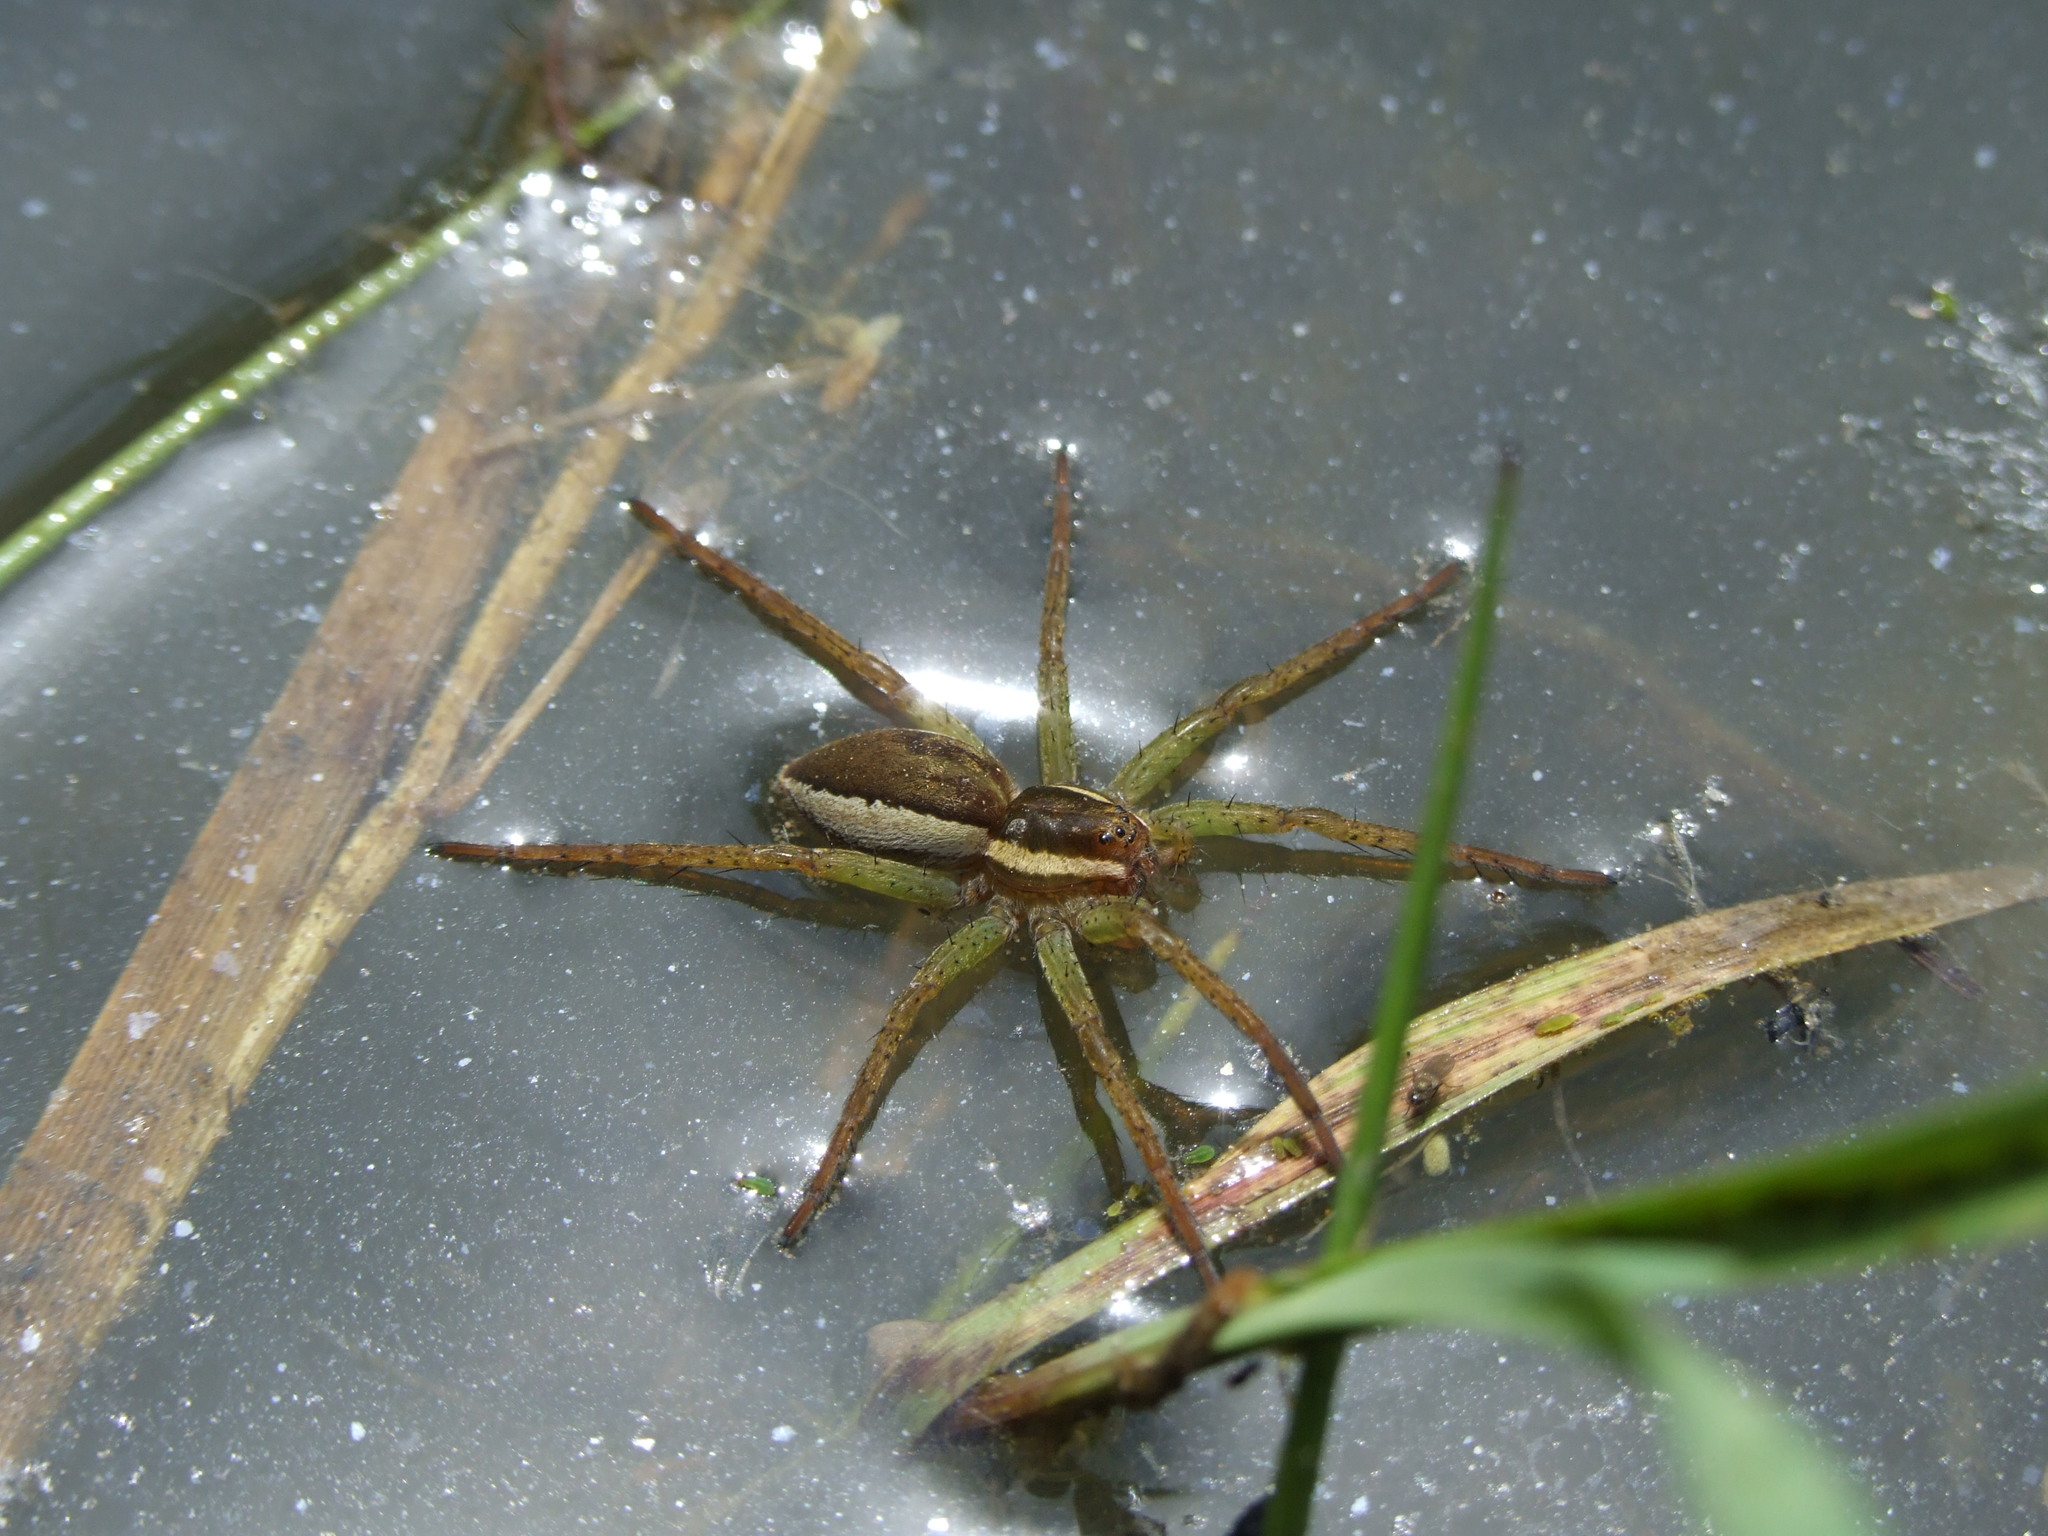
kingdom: Animalia
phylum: Arthropoda
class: Arachnida
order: Araneae
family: Pisauridae
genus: Dolomedes
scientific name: Dolomedes
